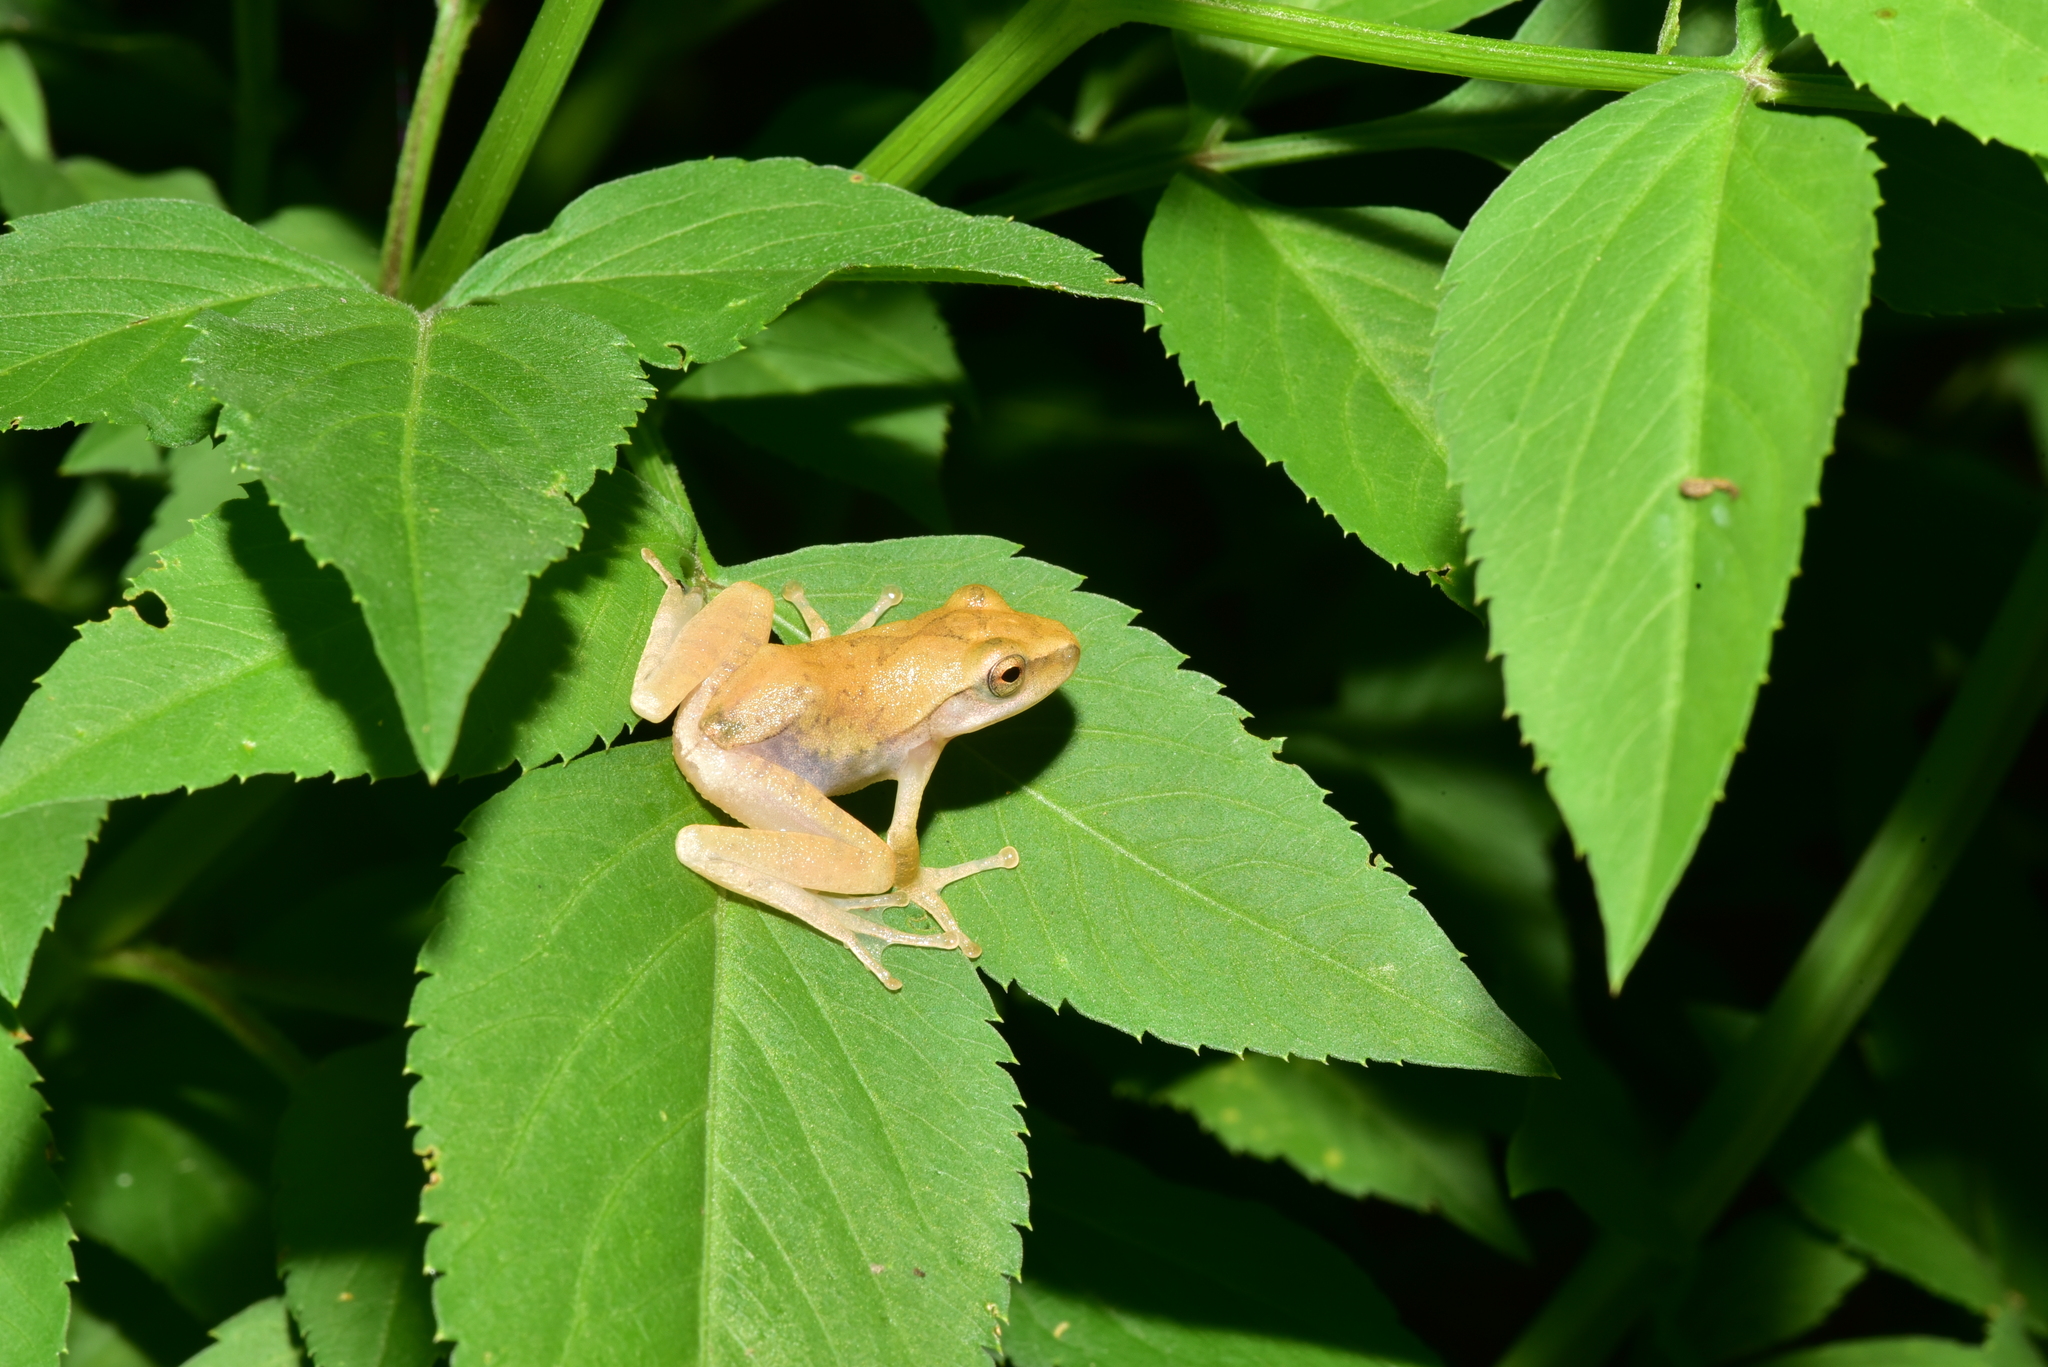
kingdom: Animalia
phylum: Chordata
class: Amphibia
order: Anura
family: Rhacophoridae
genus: Polypedates
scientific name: Polypedates megacephalus
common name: Hong kong whipping frog
